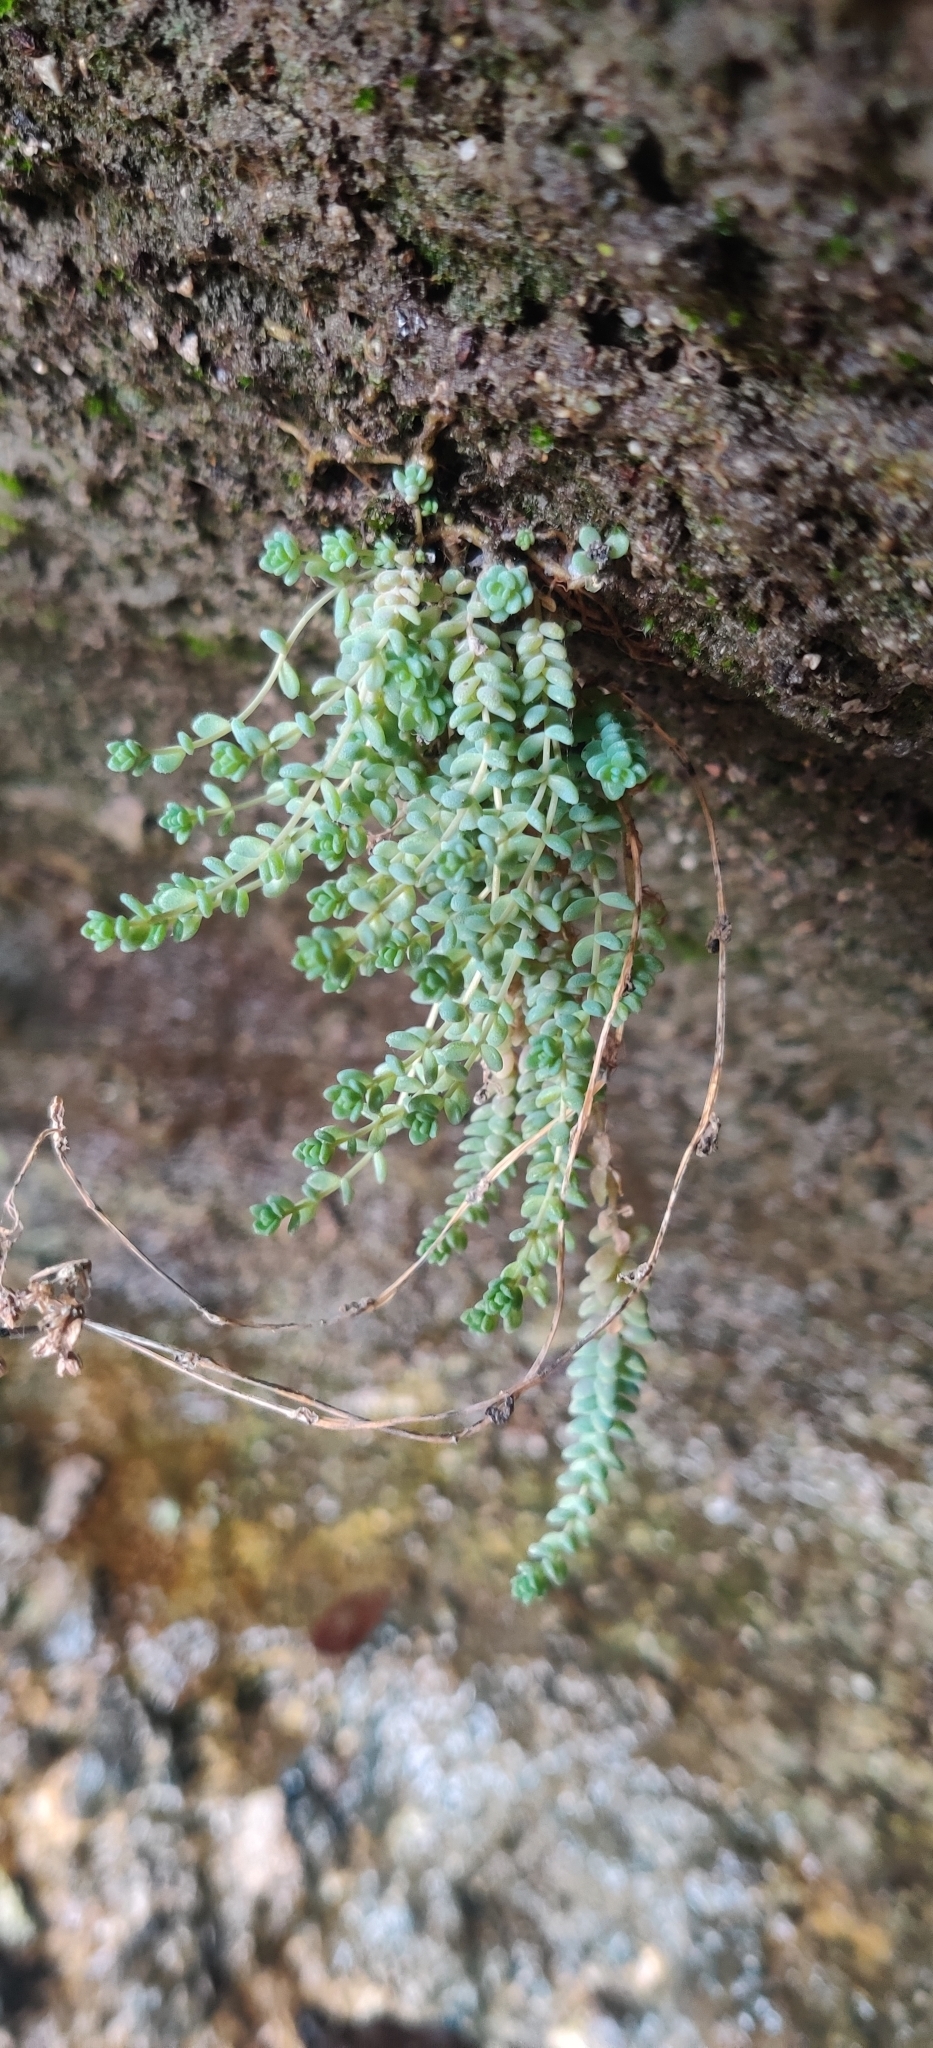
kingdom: Plantae
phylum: Tracheophyta
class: Magnoliopsida
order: Saxifragales
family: Crassulaceae
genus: Sedum
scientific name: Sedum dasyphyllum
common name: Thick-leaf stonecrop
